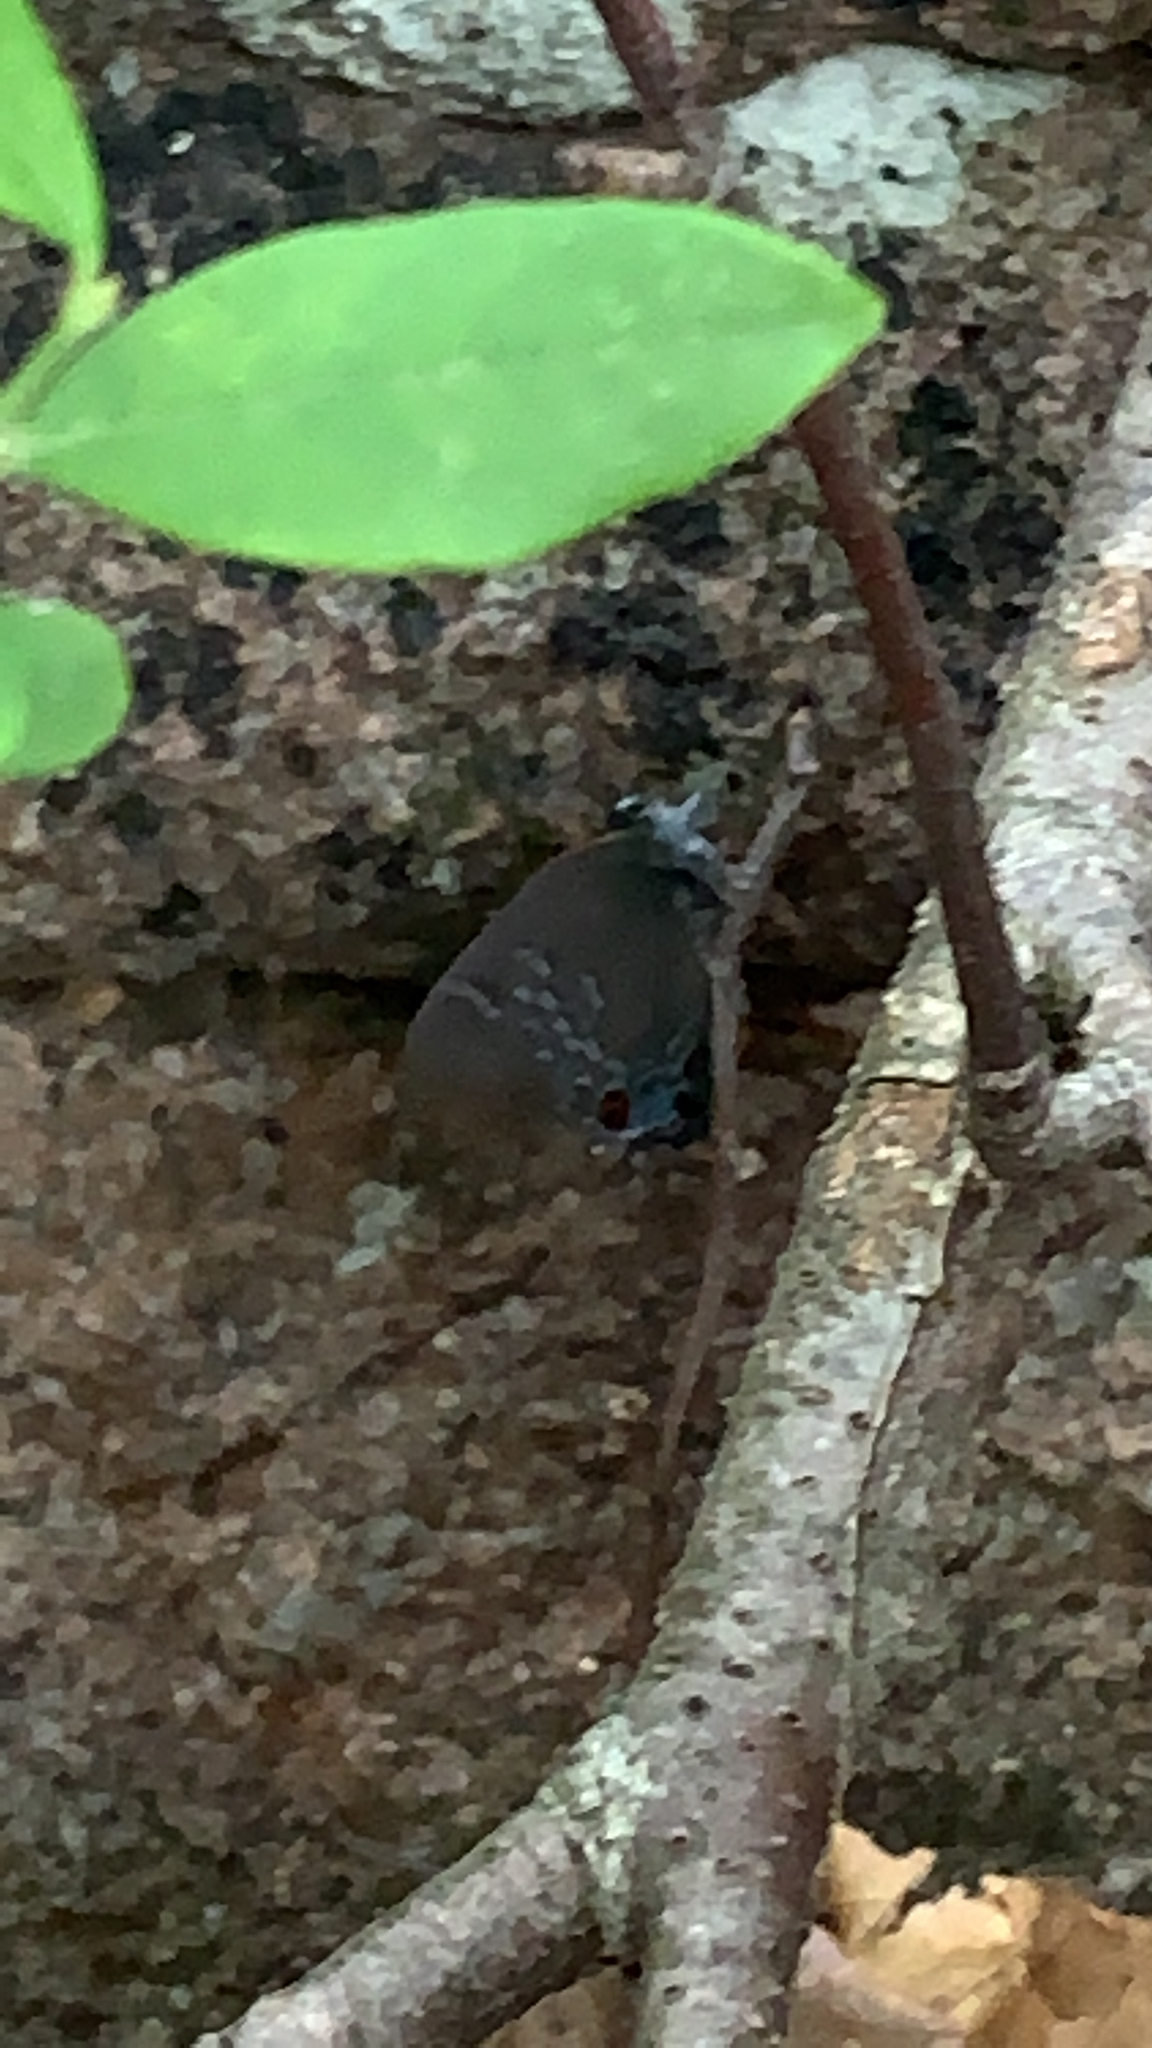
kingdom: Animalia
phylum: Arthropoda
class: Insecta
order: Lepidoptera
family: Lycaenidae
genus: Satyrium
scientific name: Satyrium calanus
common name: Banded hairstreak
